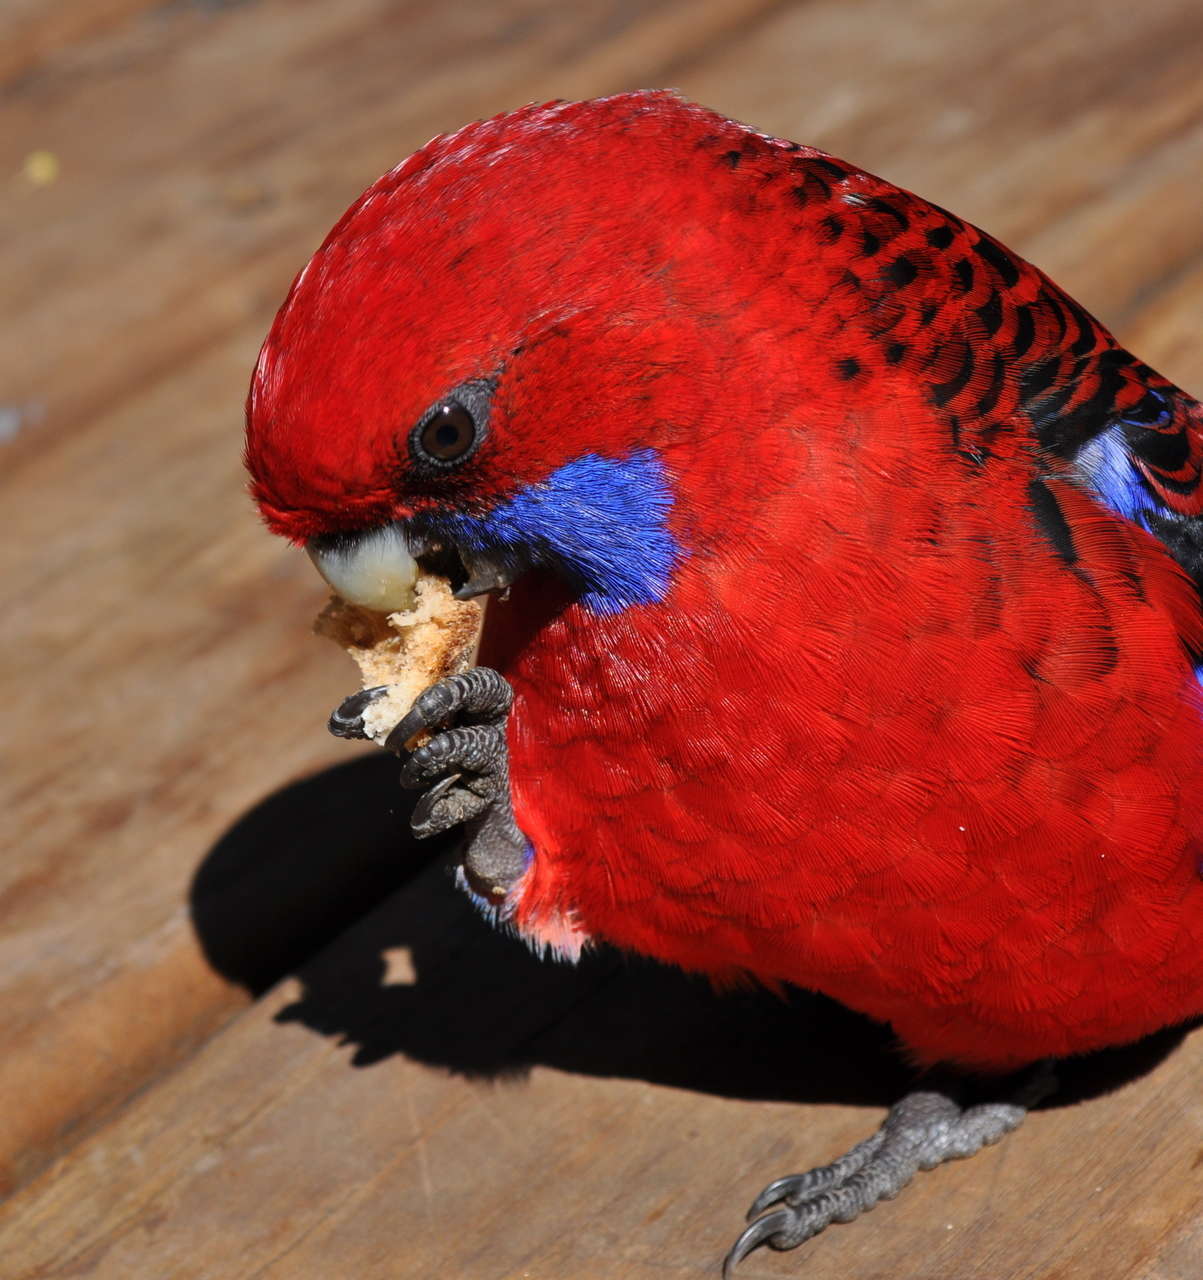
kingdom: Animalia
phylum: Chordata
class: Aves
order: Psittaciformes
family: Psittacidae
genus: Platycercus
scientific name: Platycercus elegans
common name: Crimson rosella
